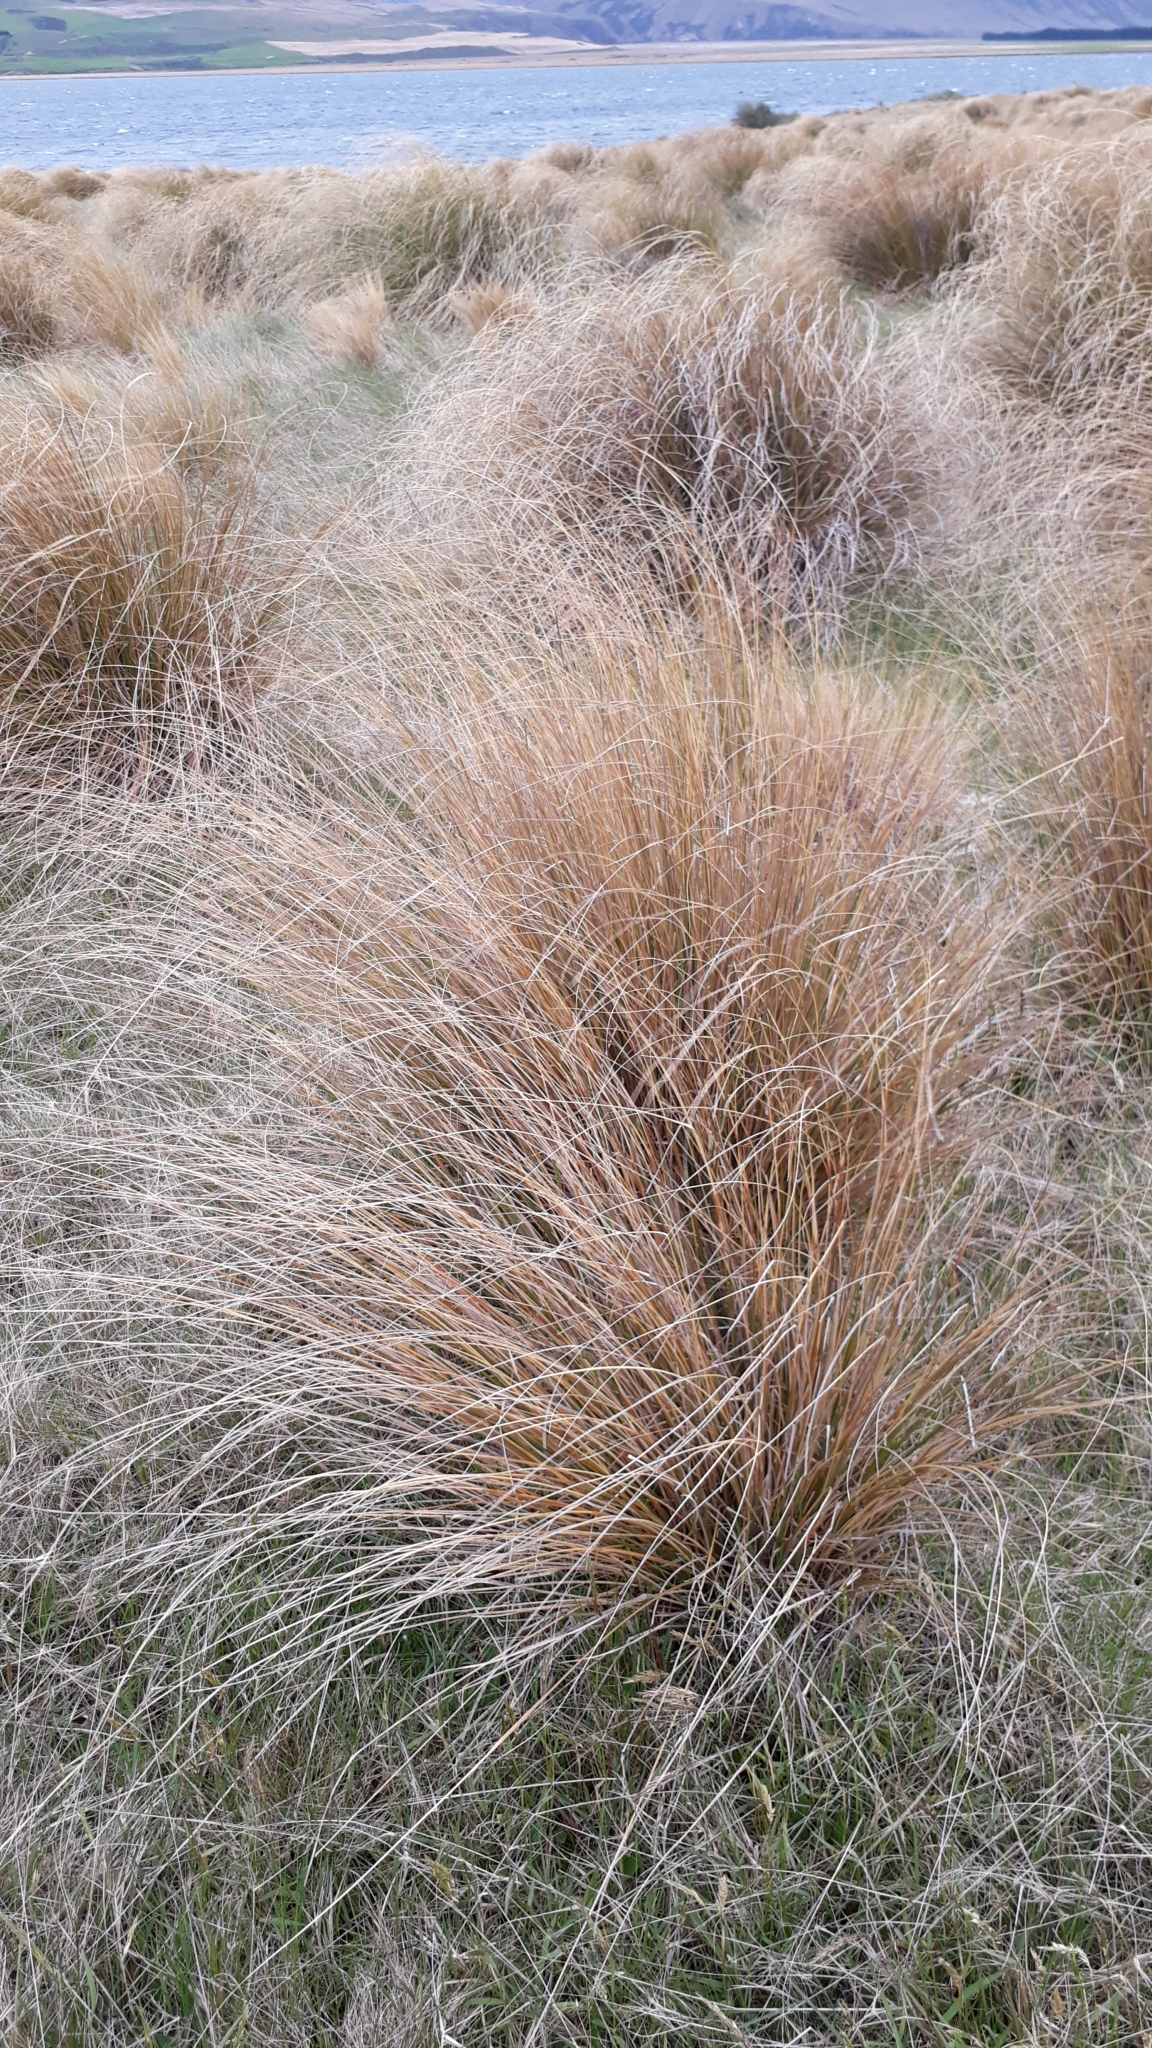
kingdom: Plantae
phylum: Tracheophyta
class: Liliopsida
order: Poales
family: Poaceae
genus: Chionochloa
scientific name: Chionochloa rubra
